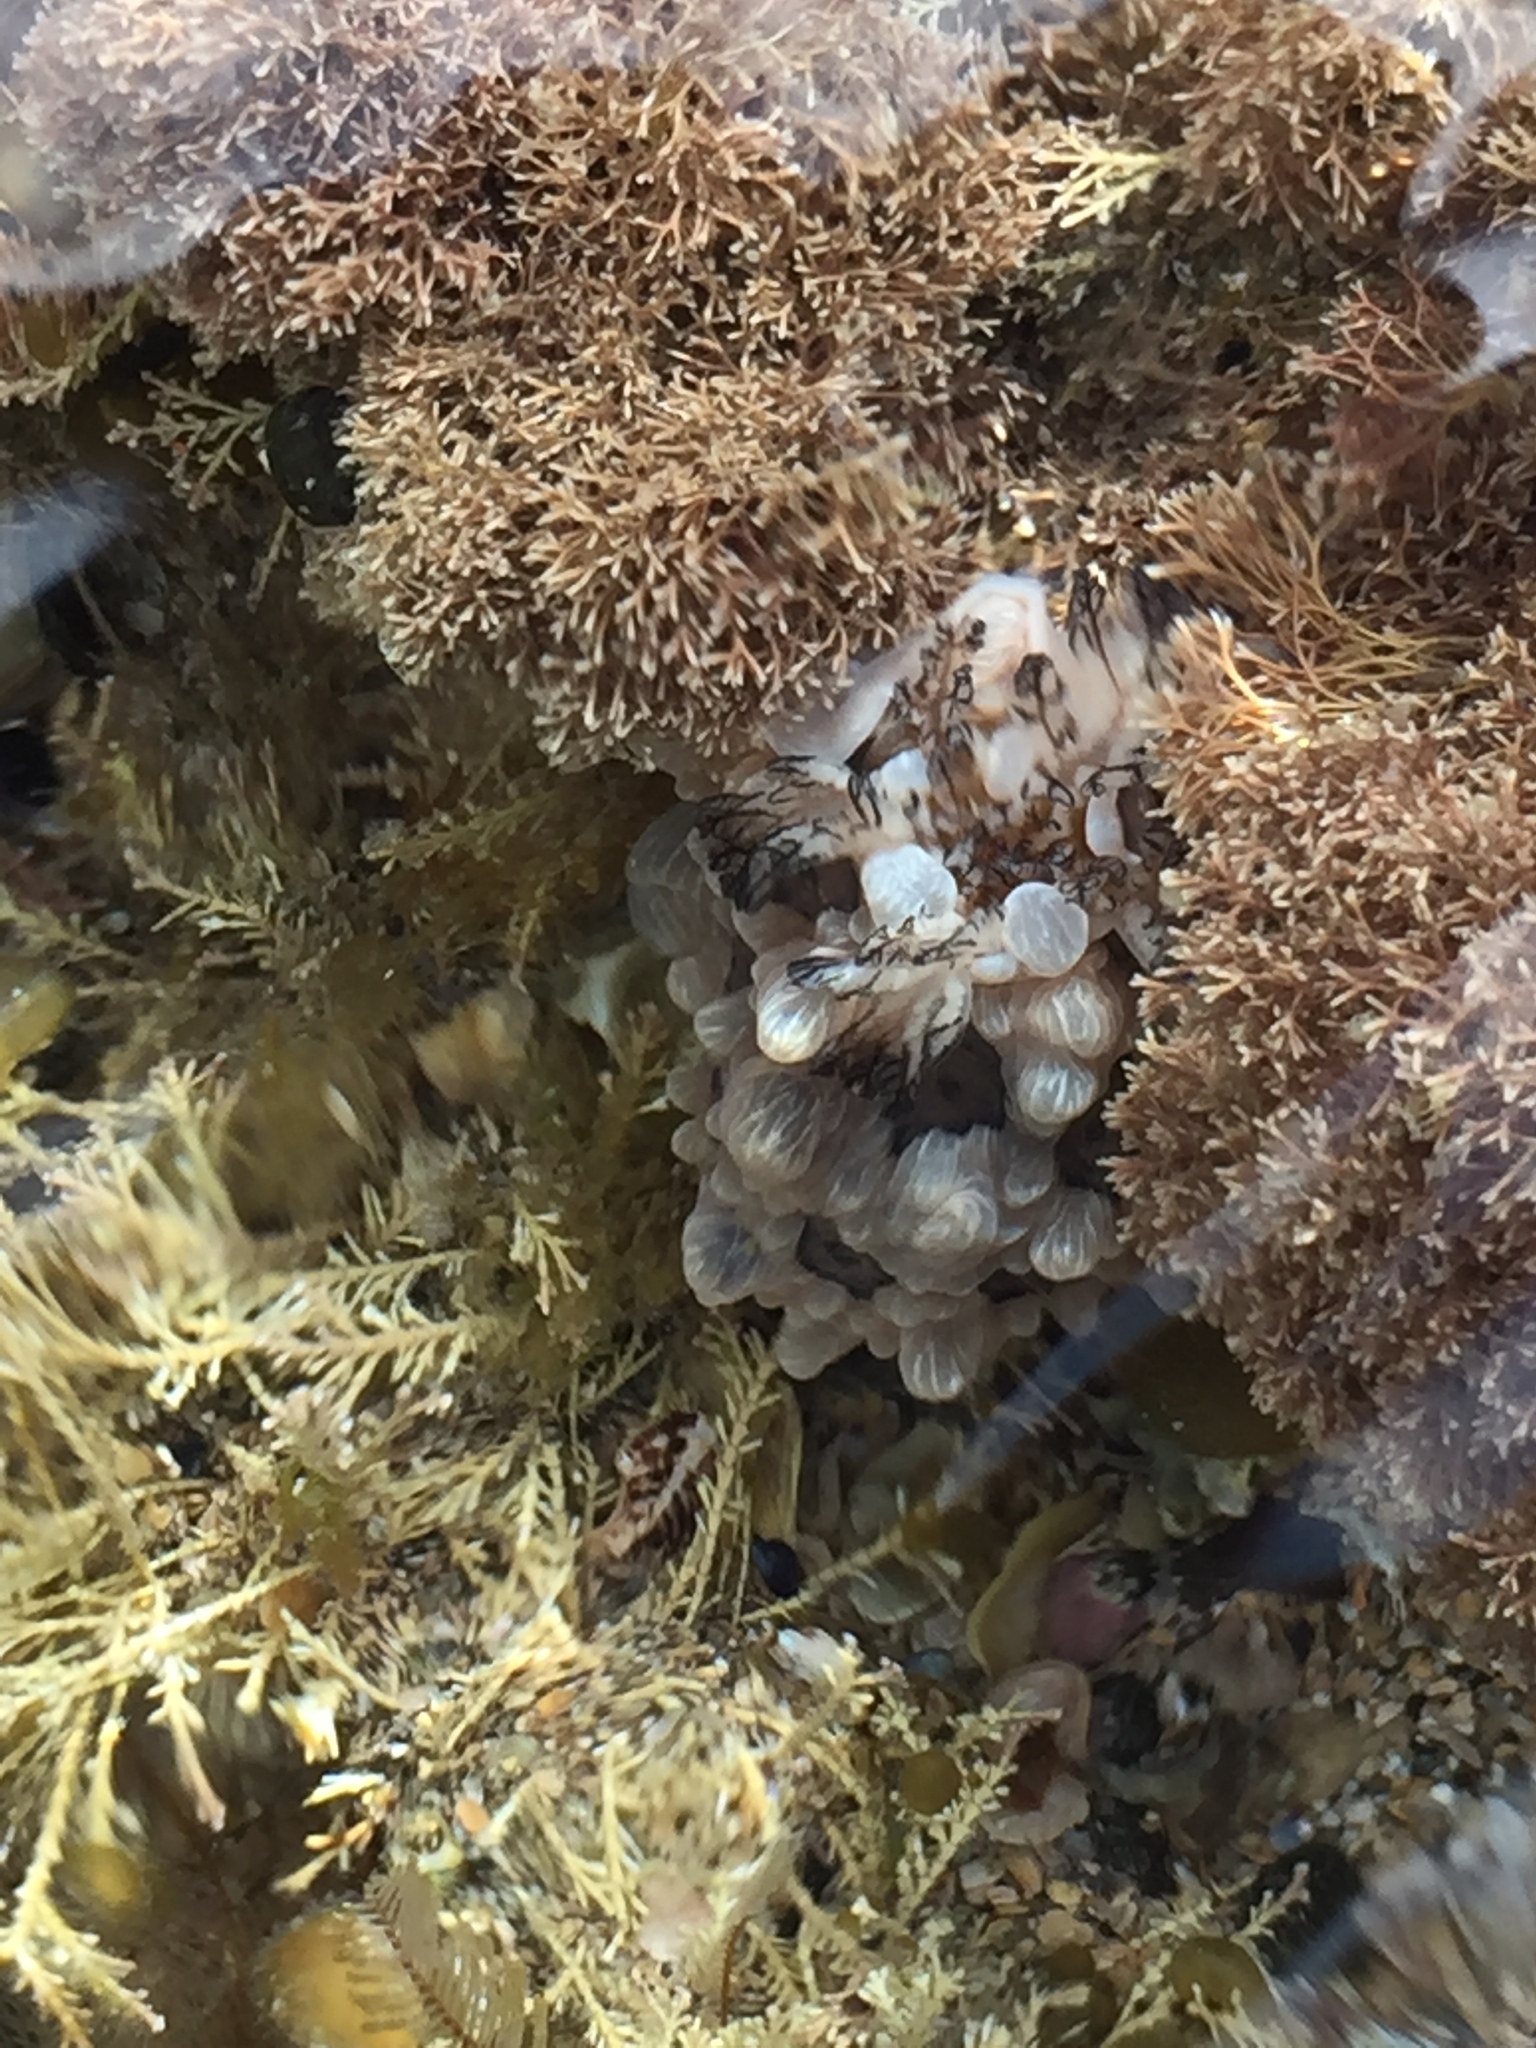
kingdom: Animalia
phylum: Mollusca
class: Gastropoda
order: Nudibranchia
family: Dendrodorididae
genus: Dendrodoris
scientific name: Dendrodoris krusensternii
